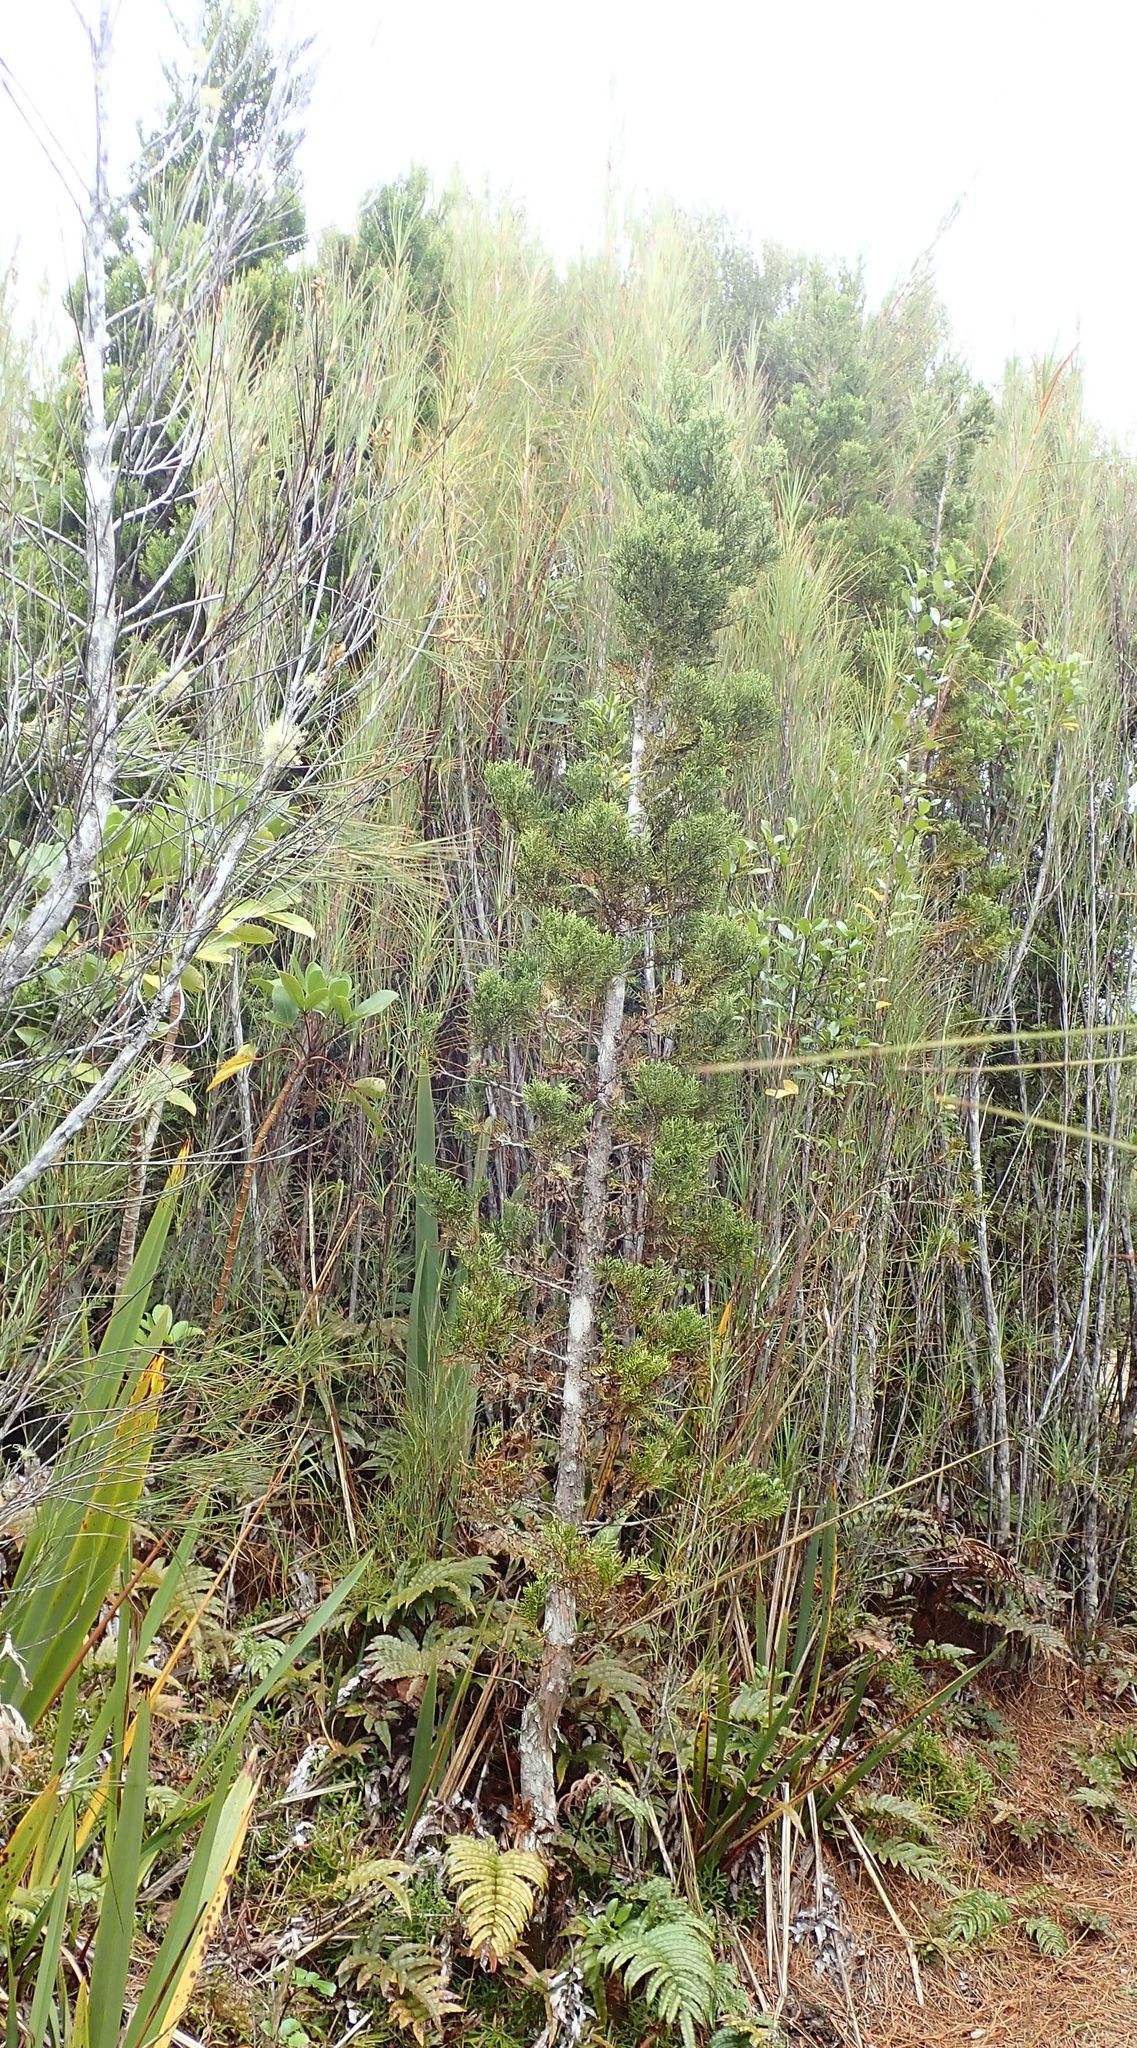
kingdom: Plantae
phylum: Tracheophyta
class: Pinopsida
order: Pinales
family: Cupressaceae
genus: Libocedrus
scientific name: Libocedrus bidwillii
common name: Cedar
